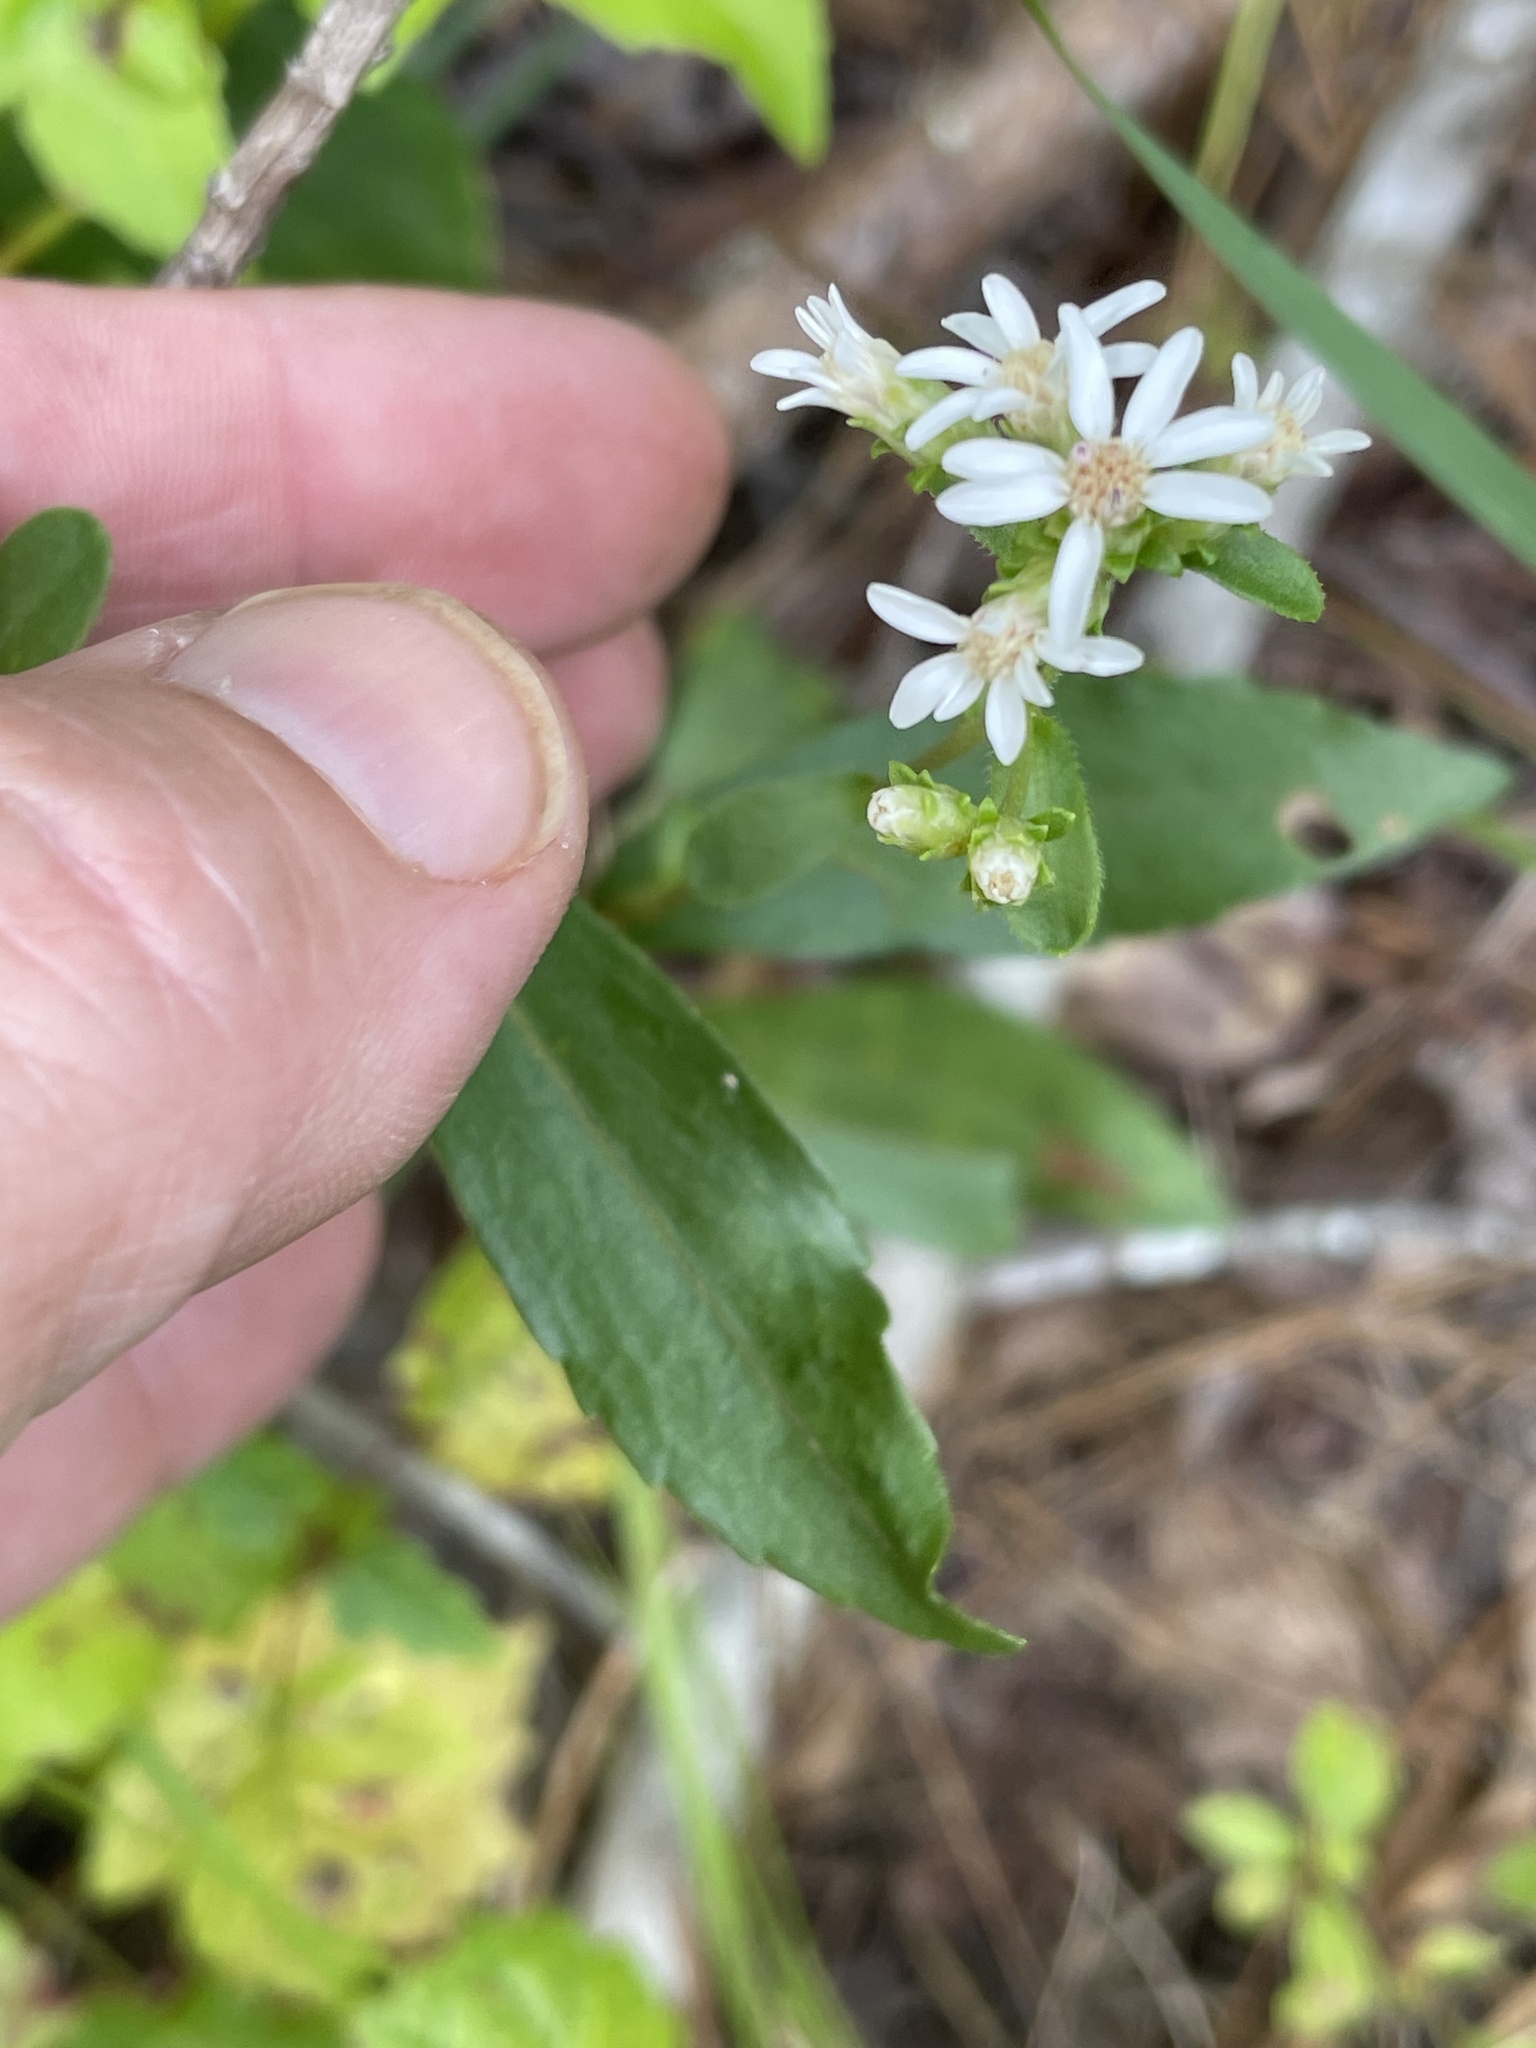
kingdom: Plantae
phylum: Tracheophyta
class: Magnoliopsida
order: Asterales
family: Asteraceae
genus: Sericocarpus
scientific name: Sericocarpus asteroides
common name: Toothed white-top aster
